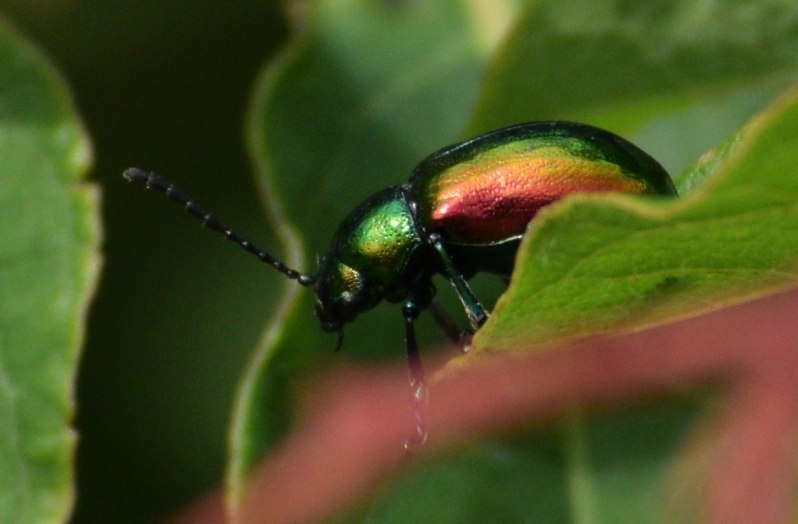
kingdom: Animalia
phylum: Arthropoda
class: Insecta
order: Coleoptera
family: Chrysomelidae
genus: Chrysochus
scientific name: Chrysochus auratus
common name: Dogbane leaf beetle
